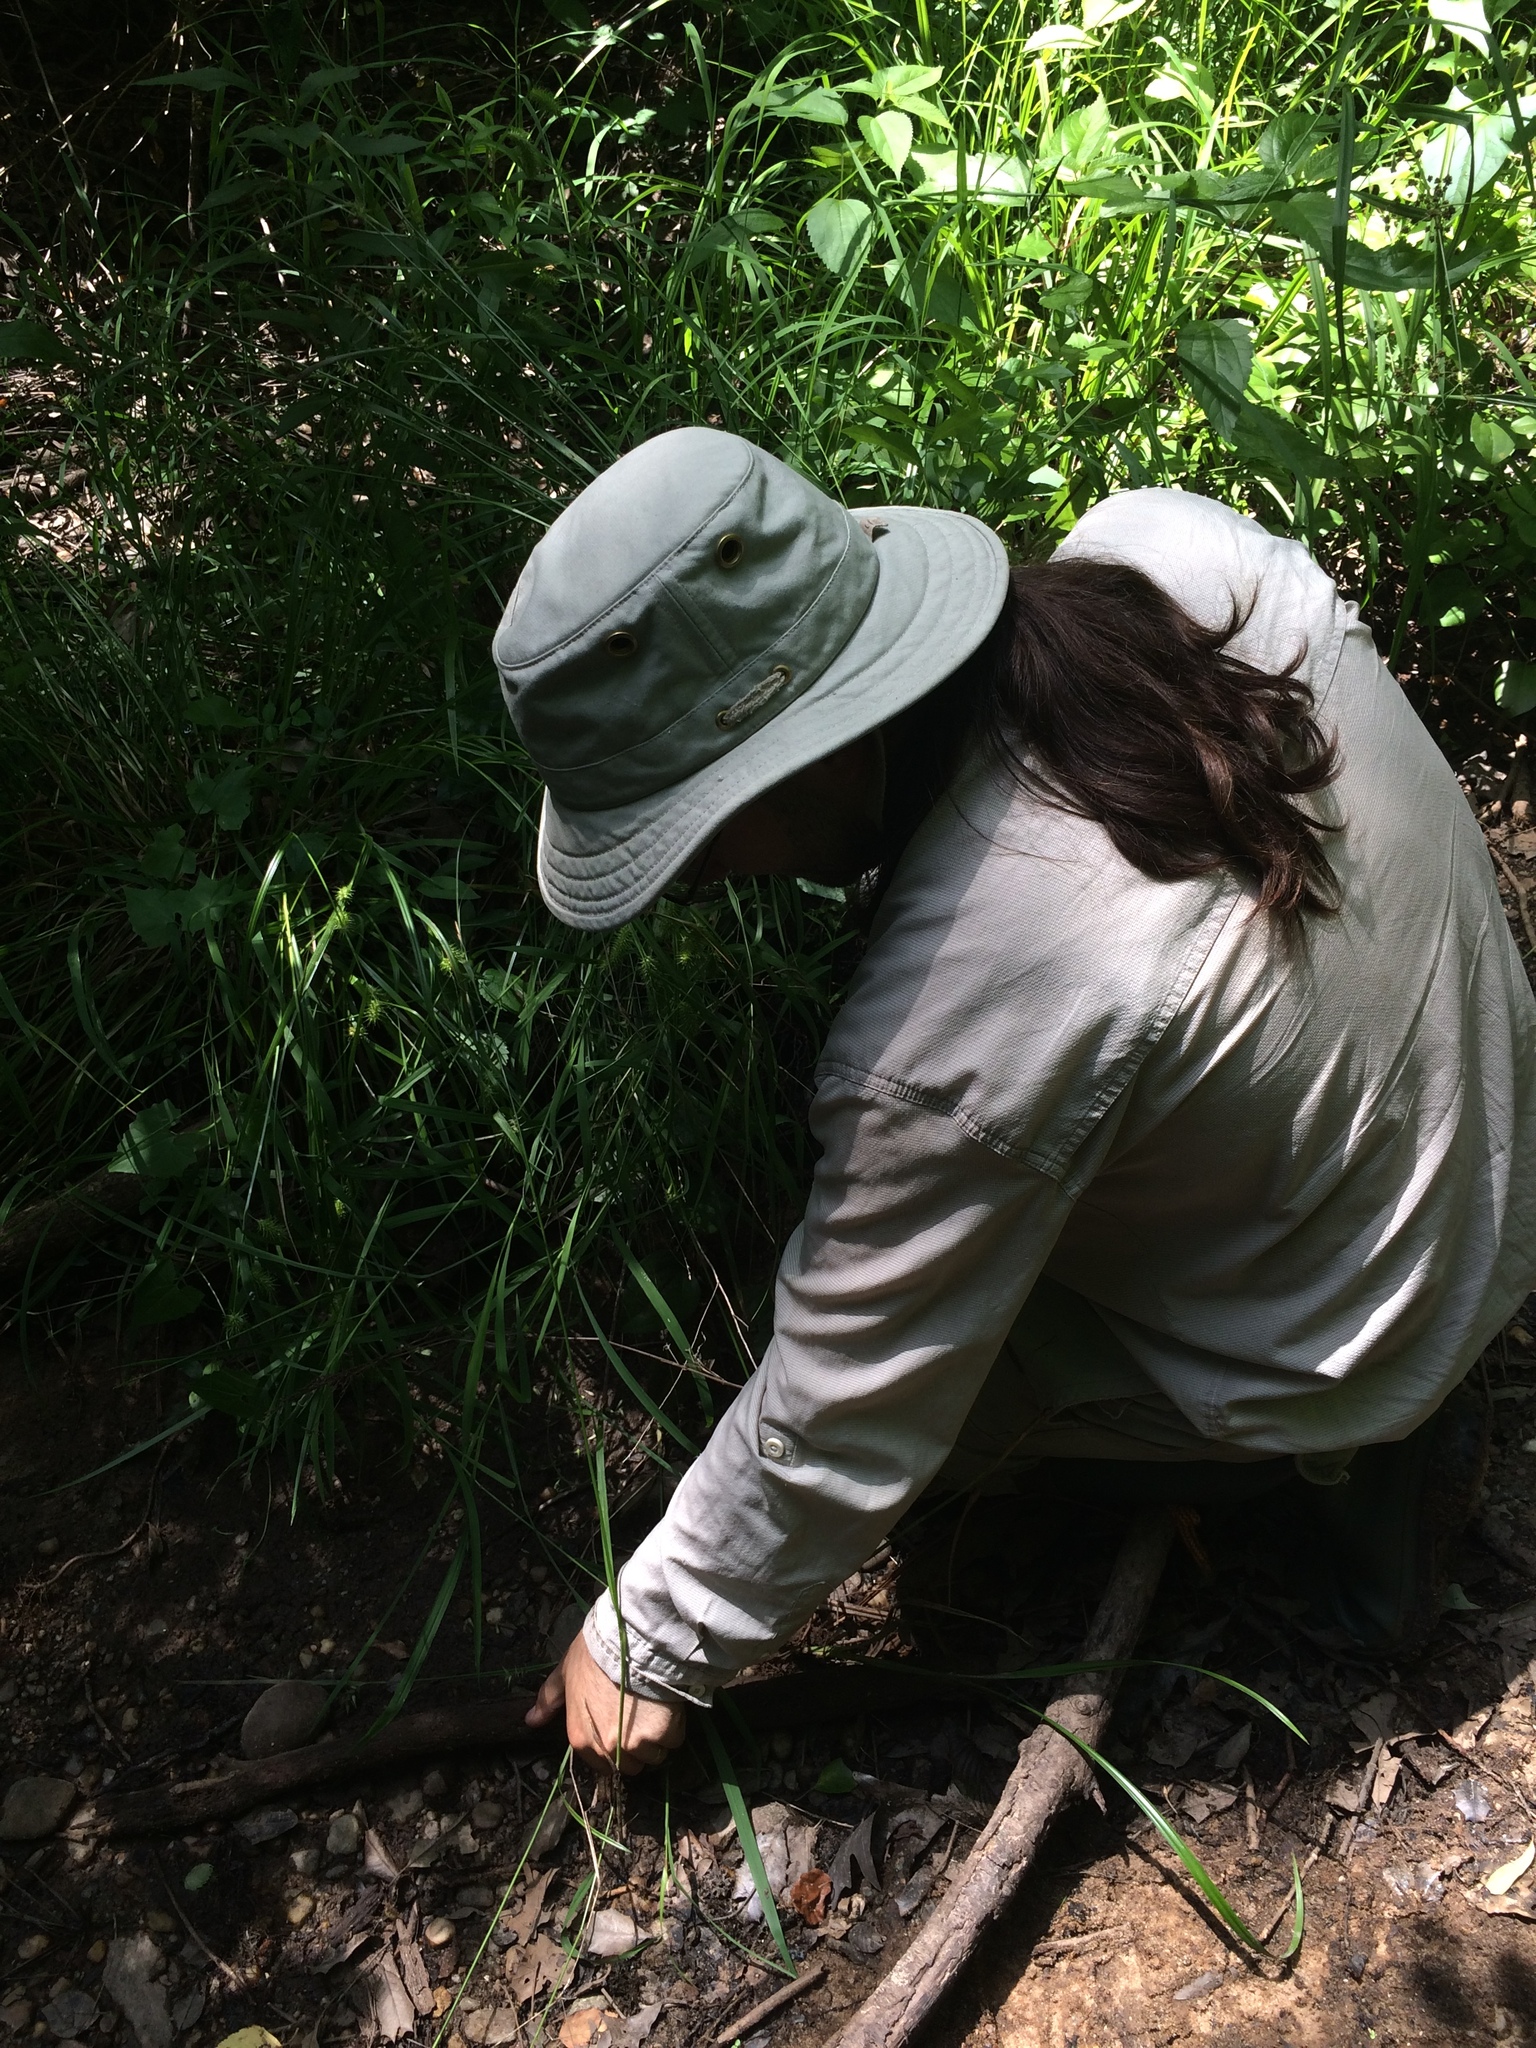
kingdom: Plantae
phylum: Tracheophyta
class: Liliopsida
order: Poales
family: Cyperaceae
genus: Carex
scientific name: Carex lonchocarpa
